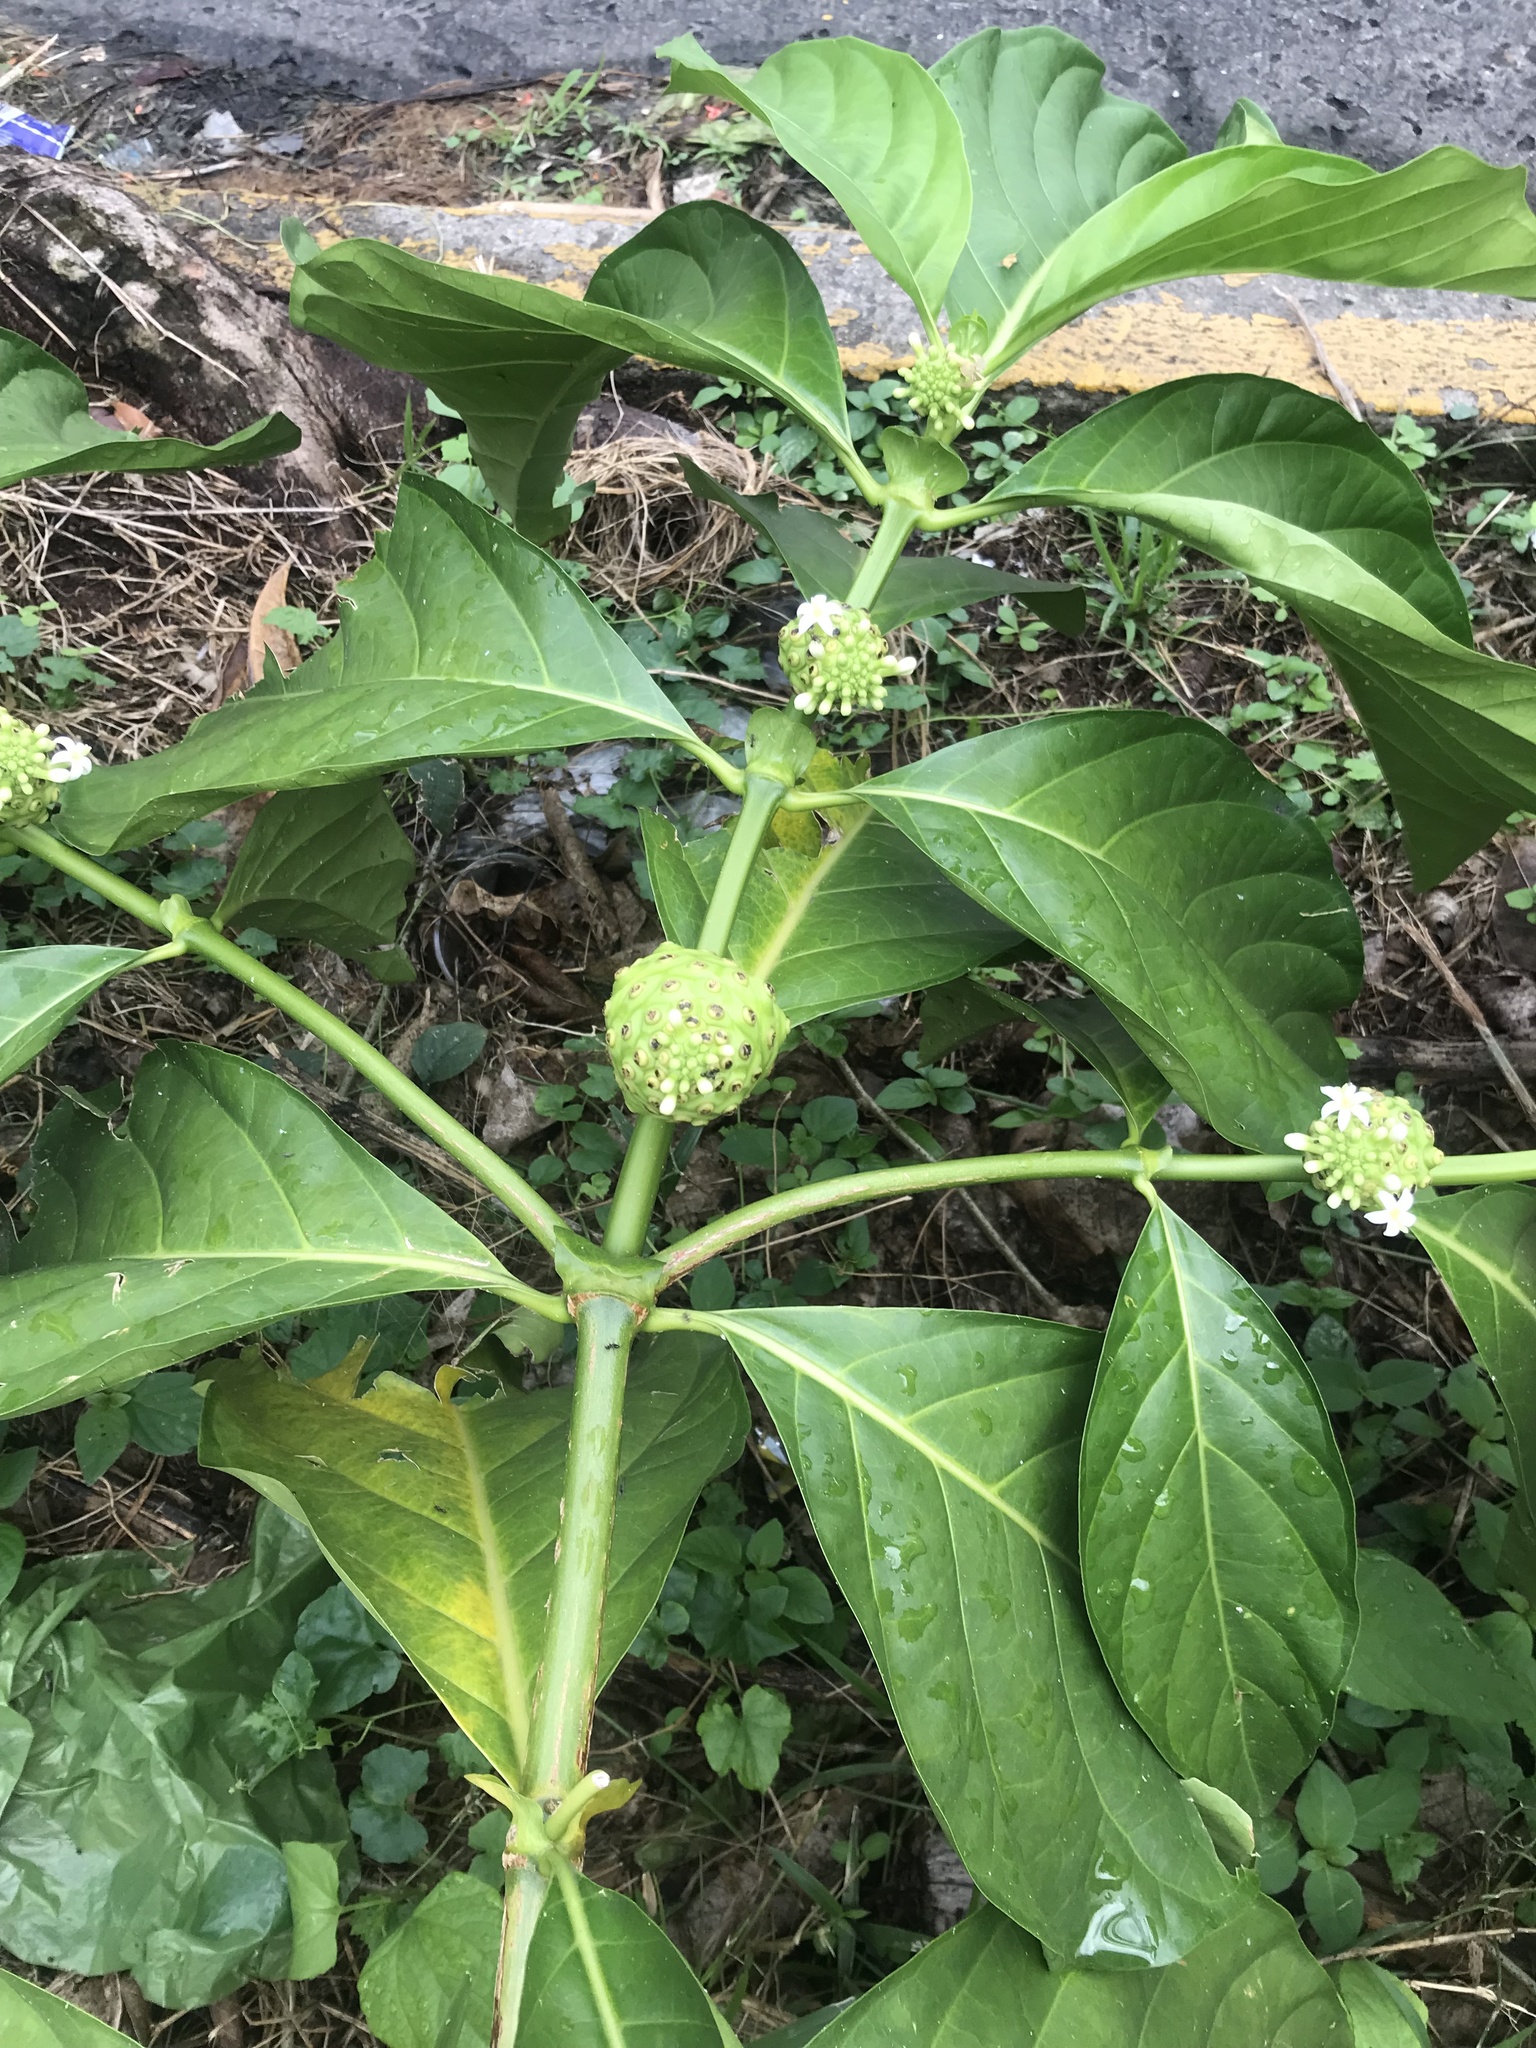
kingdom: Plantae
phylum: Tracheophyta
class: Magnoliopsida
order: Gentianales
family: Rubiaceae
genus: Morinda
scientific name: Morinda citrifolia
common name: Indian-mulberry
